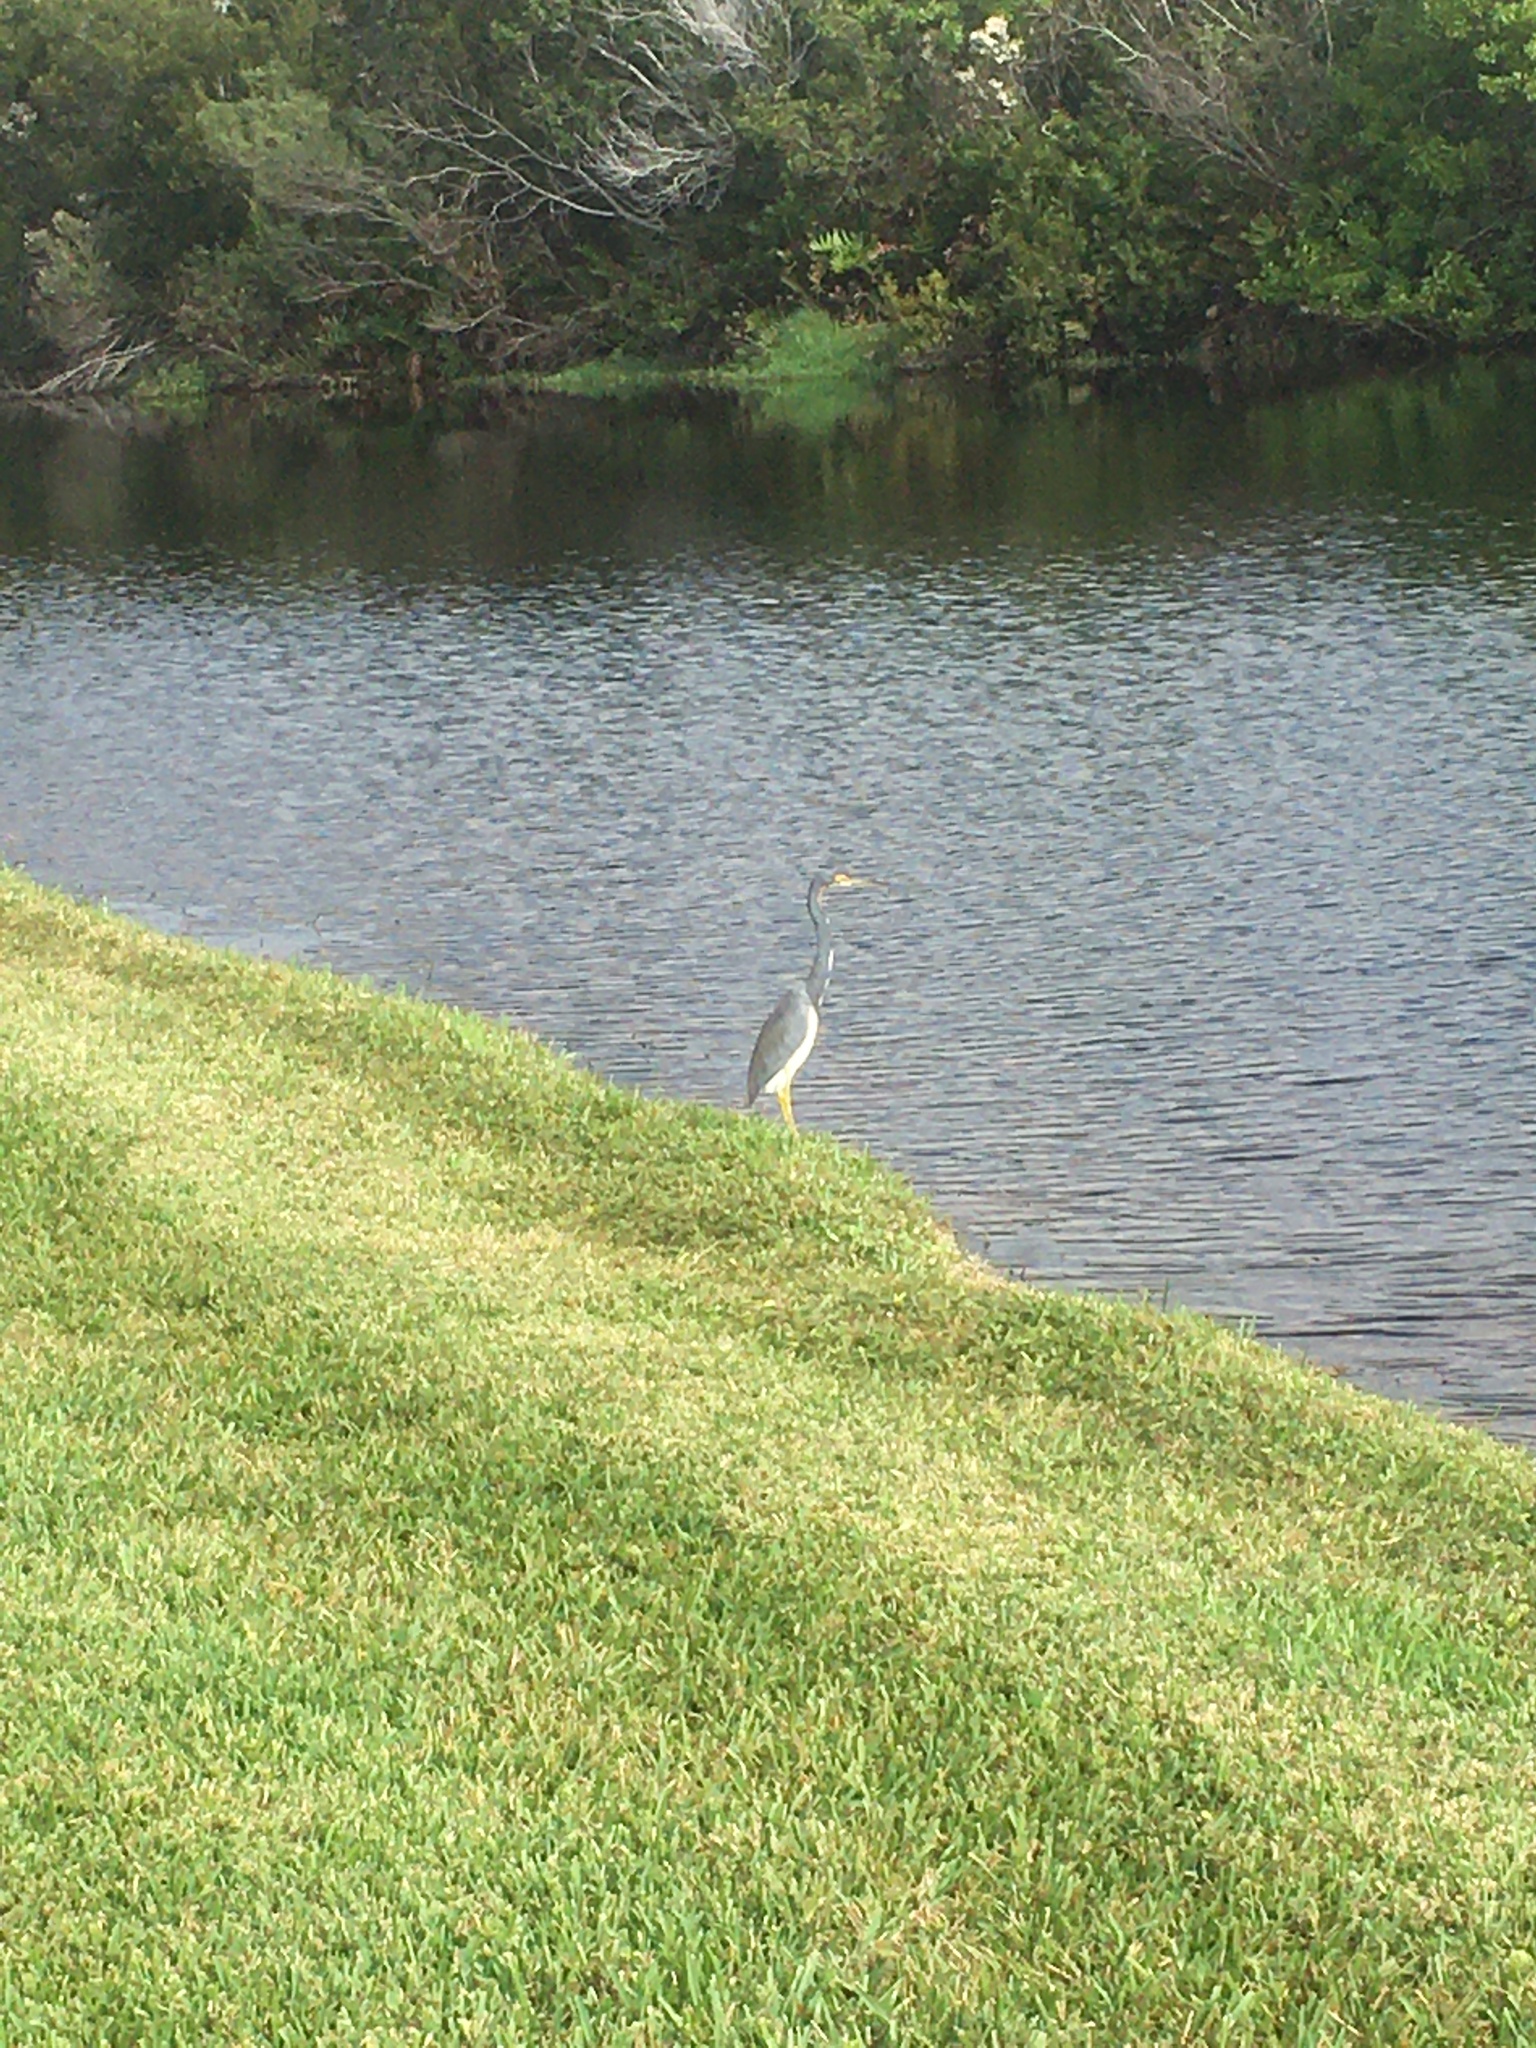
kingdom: Animalia
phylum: Chordata
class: Aves
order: Pelecaniformes
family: Ardeidae
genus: Egretta
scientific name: Egretta tricolor
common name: Tricolored heron
